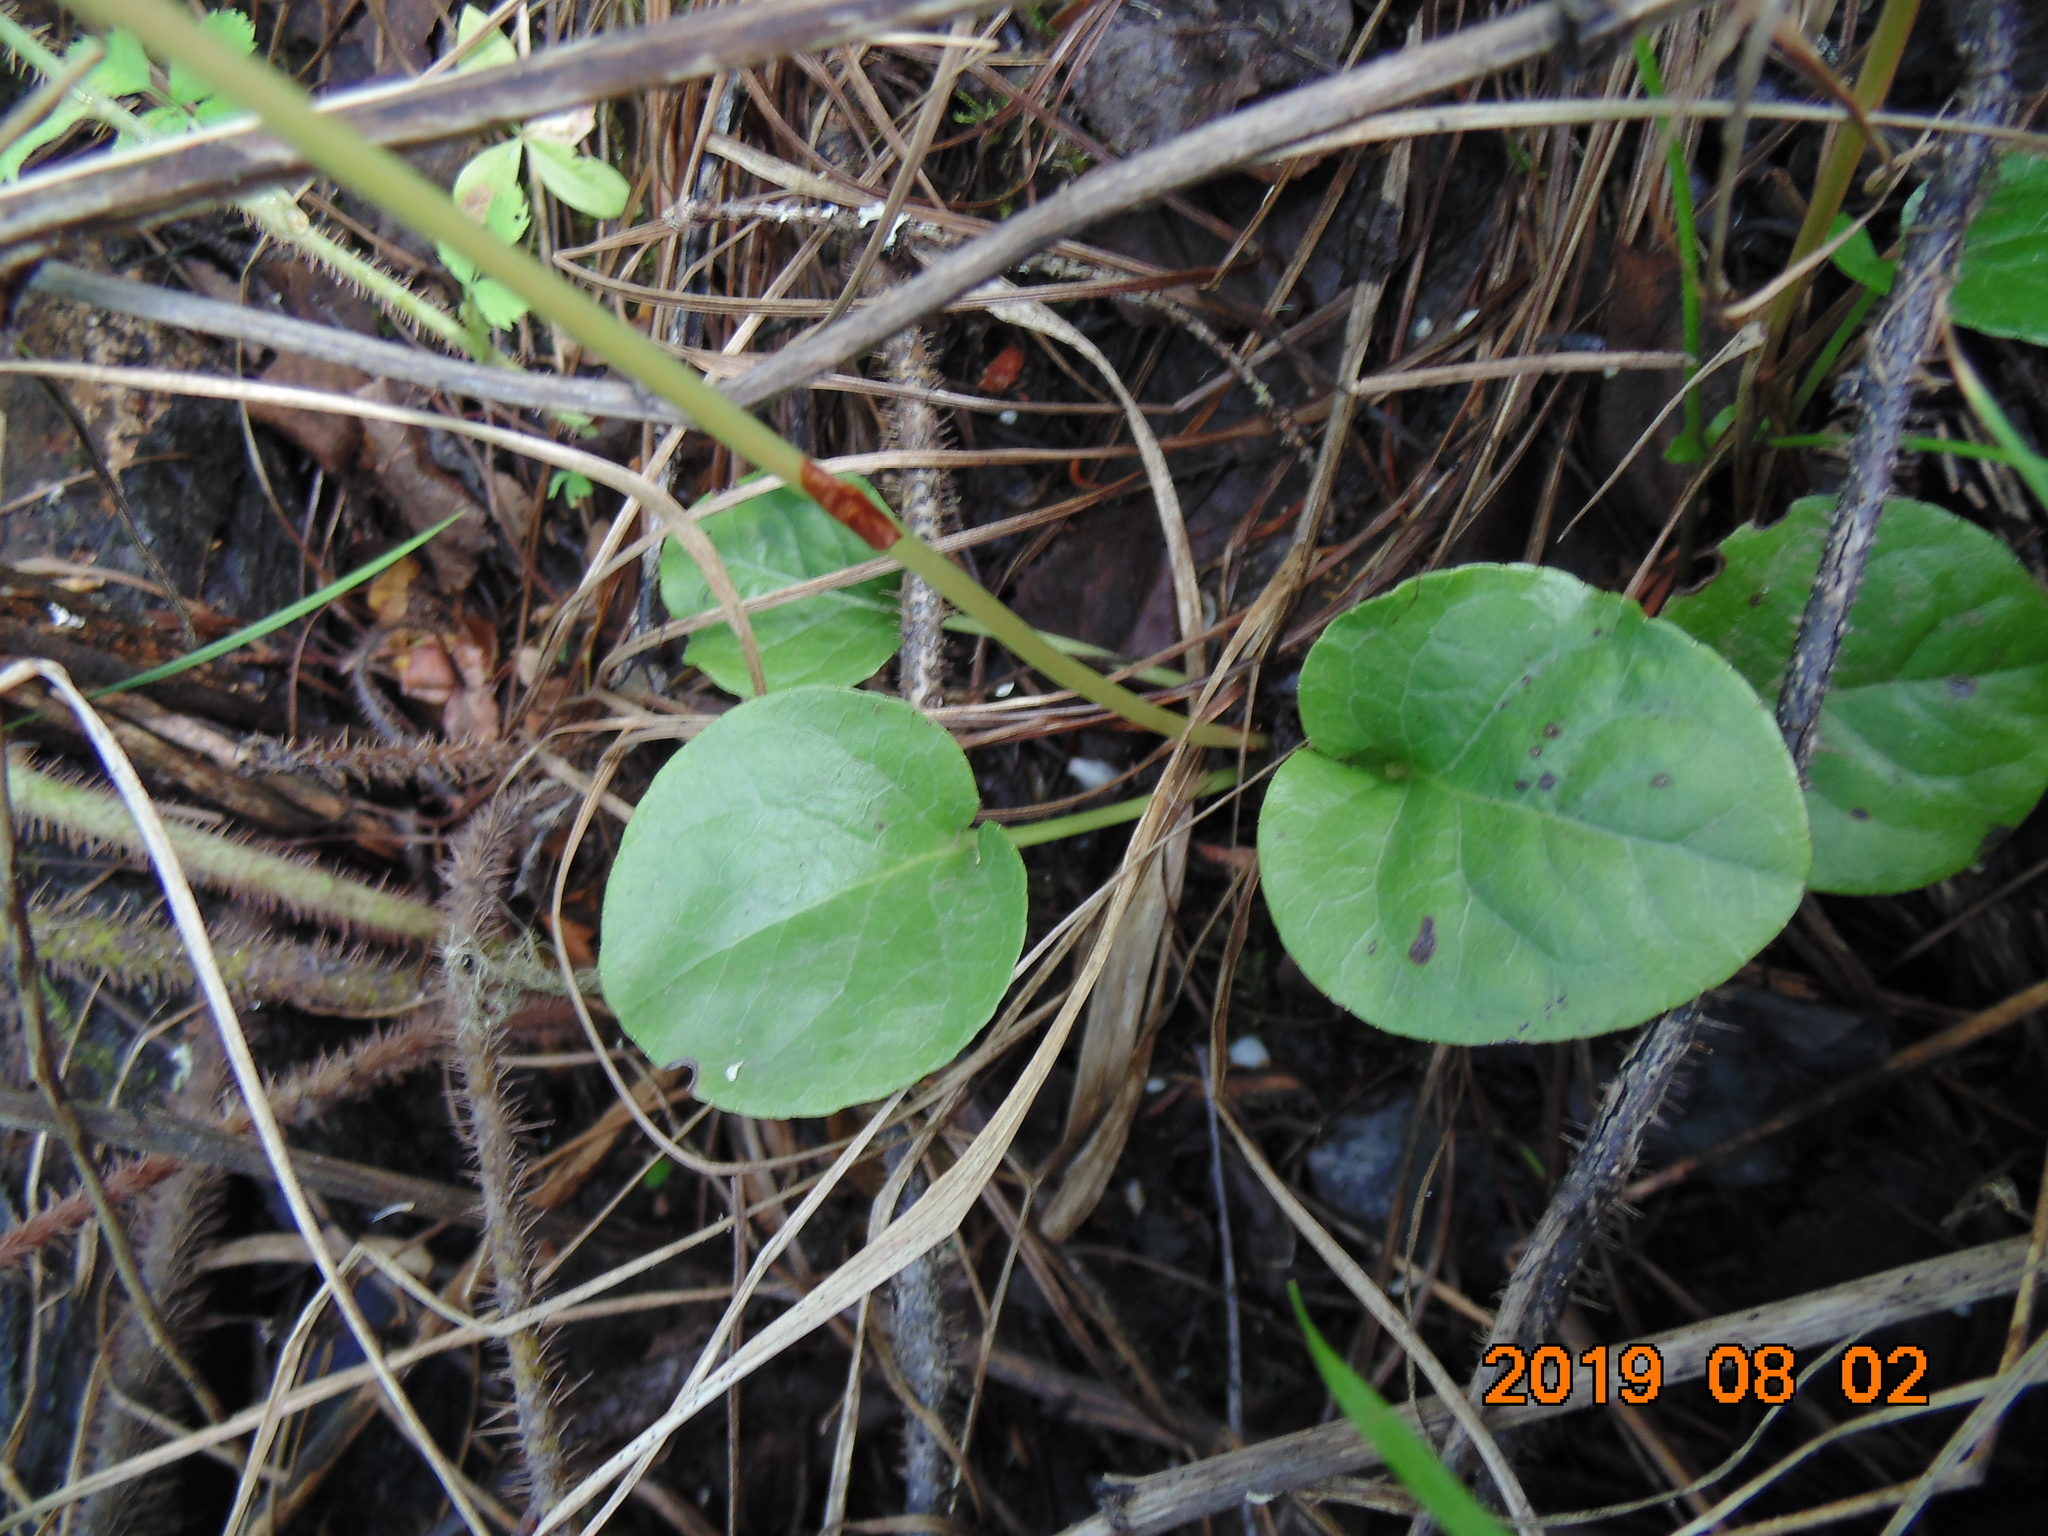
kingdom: Plantae
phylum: Tracheophyta
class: Magnoliopsida
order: Ericales
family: Ericaceae
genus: Pyrola
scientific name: Pyrola rotundifolia
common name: Round-leaved wintergreen
